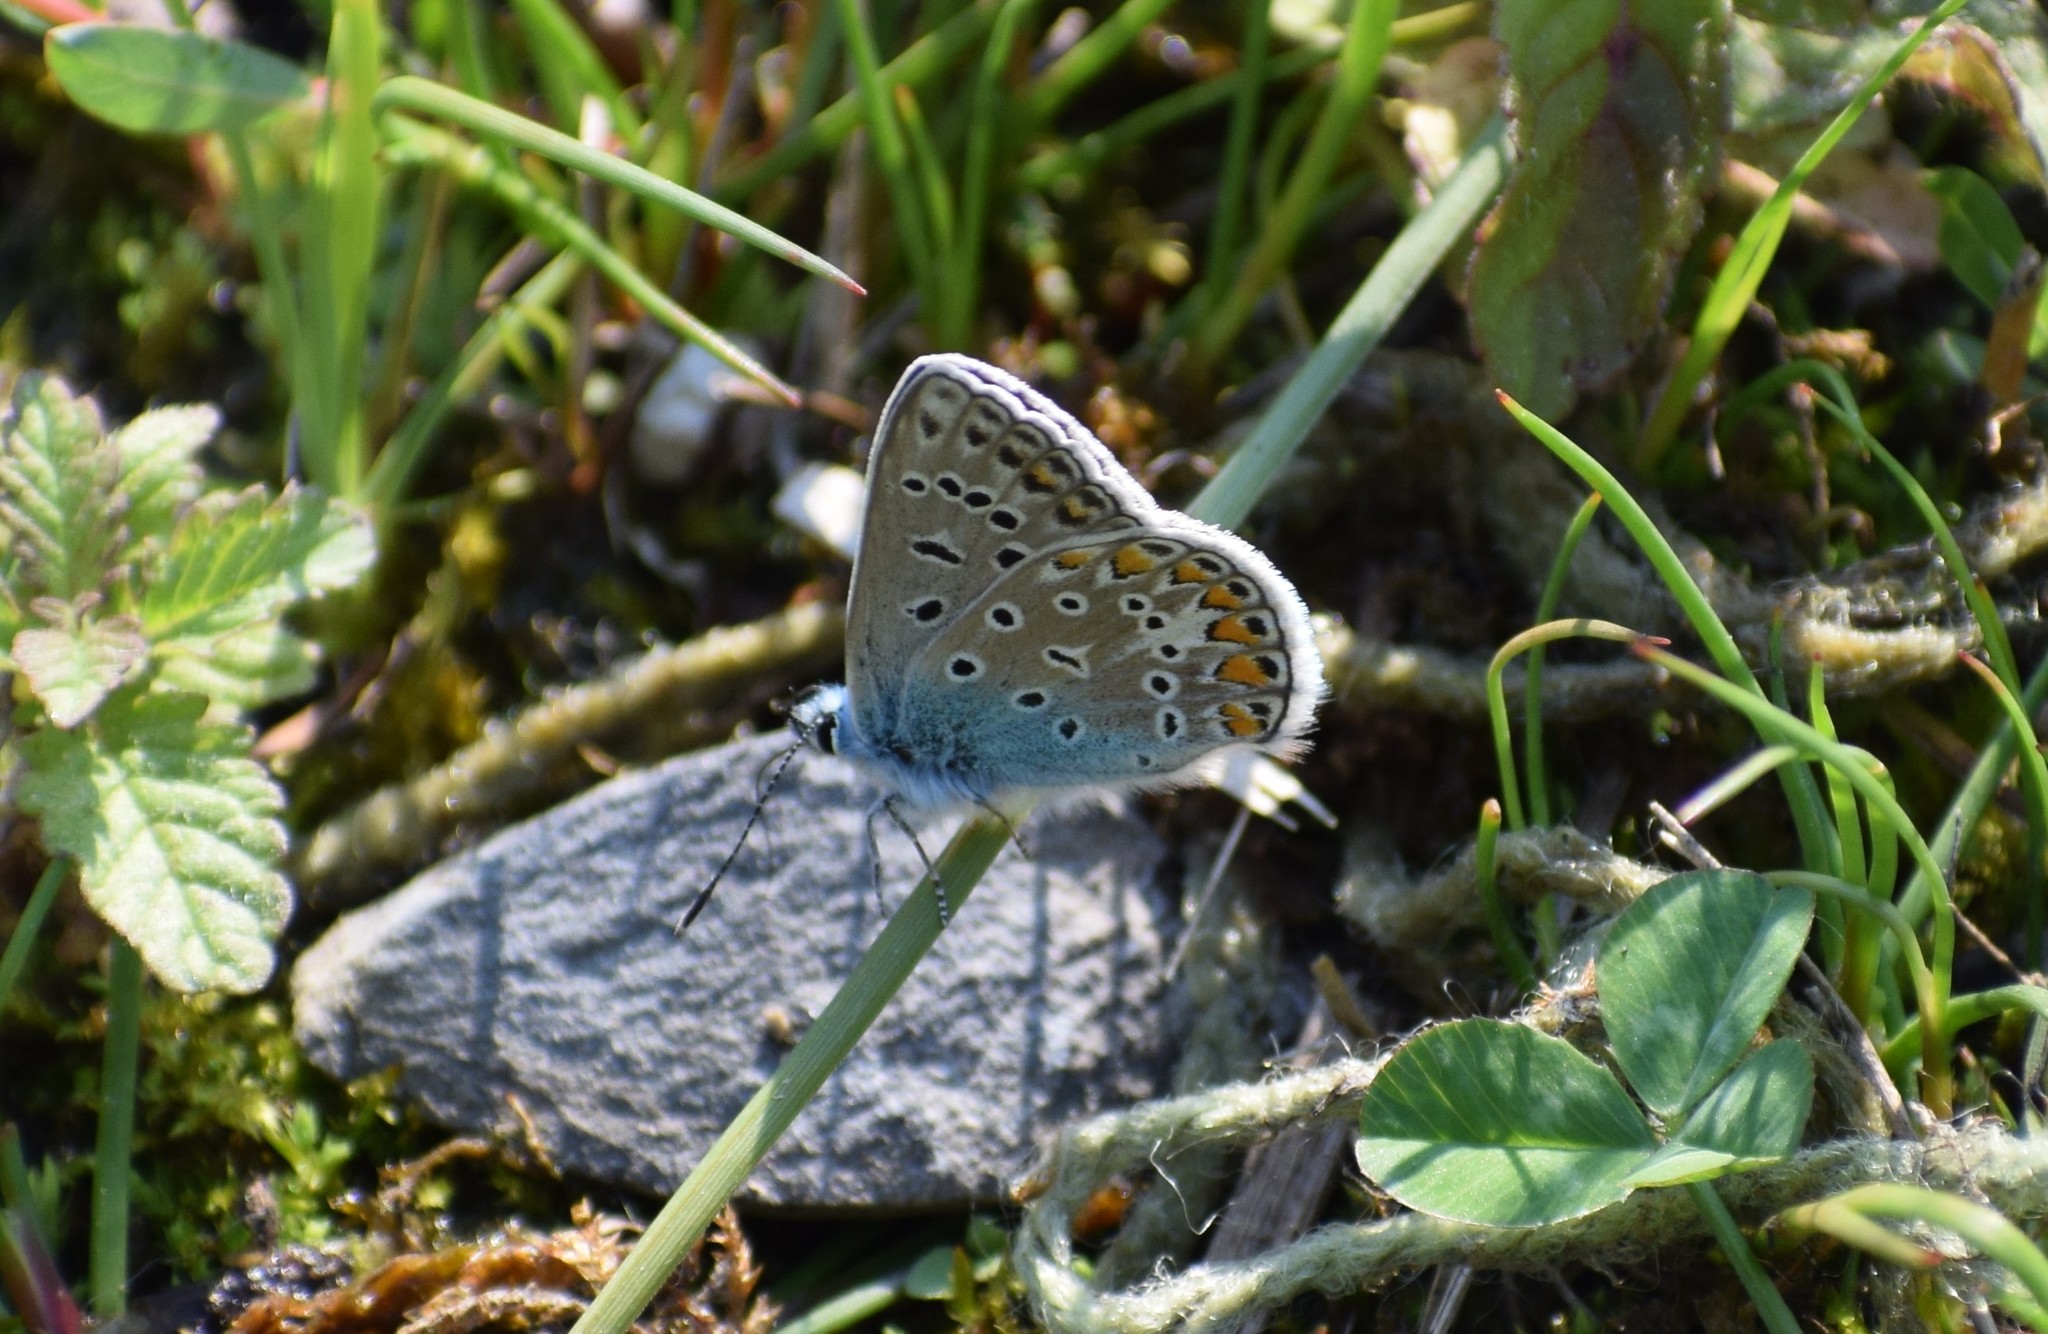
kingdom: Animalia
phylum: Arthropoda
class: Insecta
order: Lepidoptera
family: Lycaenidae
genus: Polyommatus
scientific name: Polyommatus icarus
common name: Common blue
